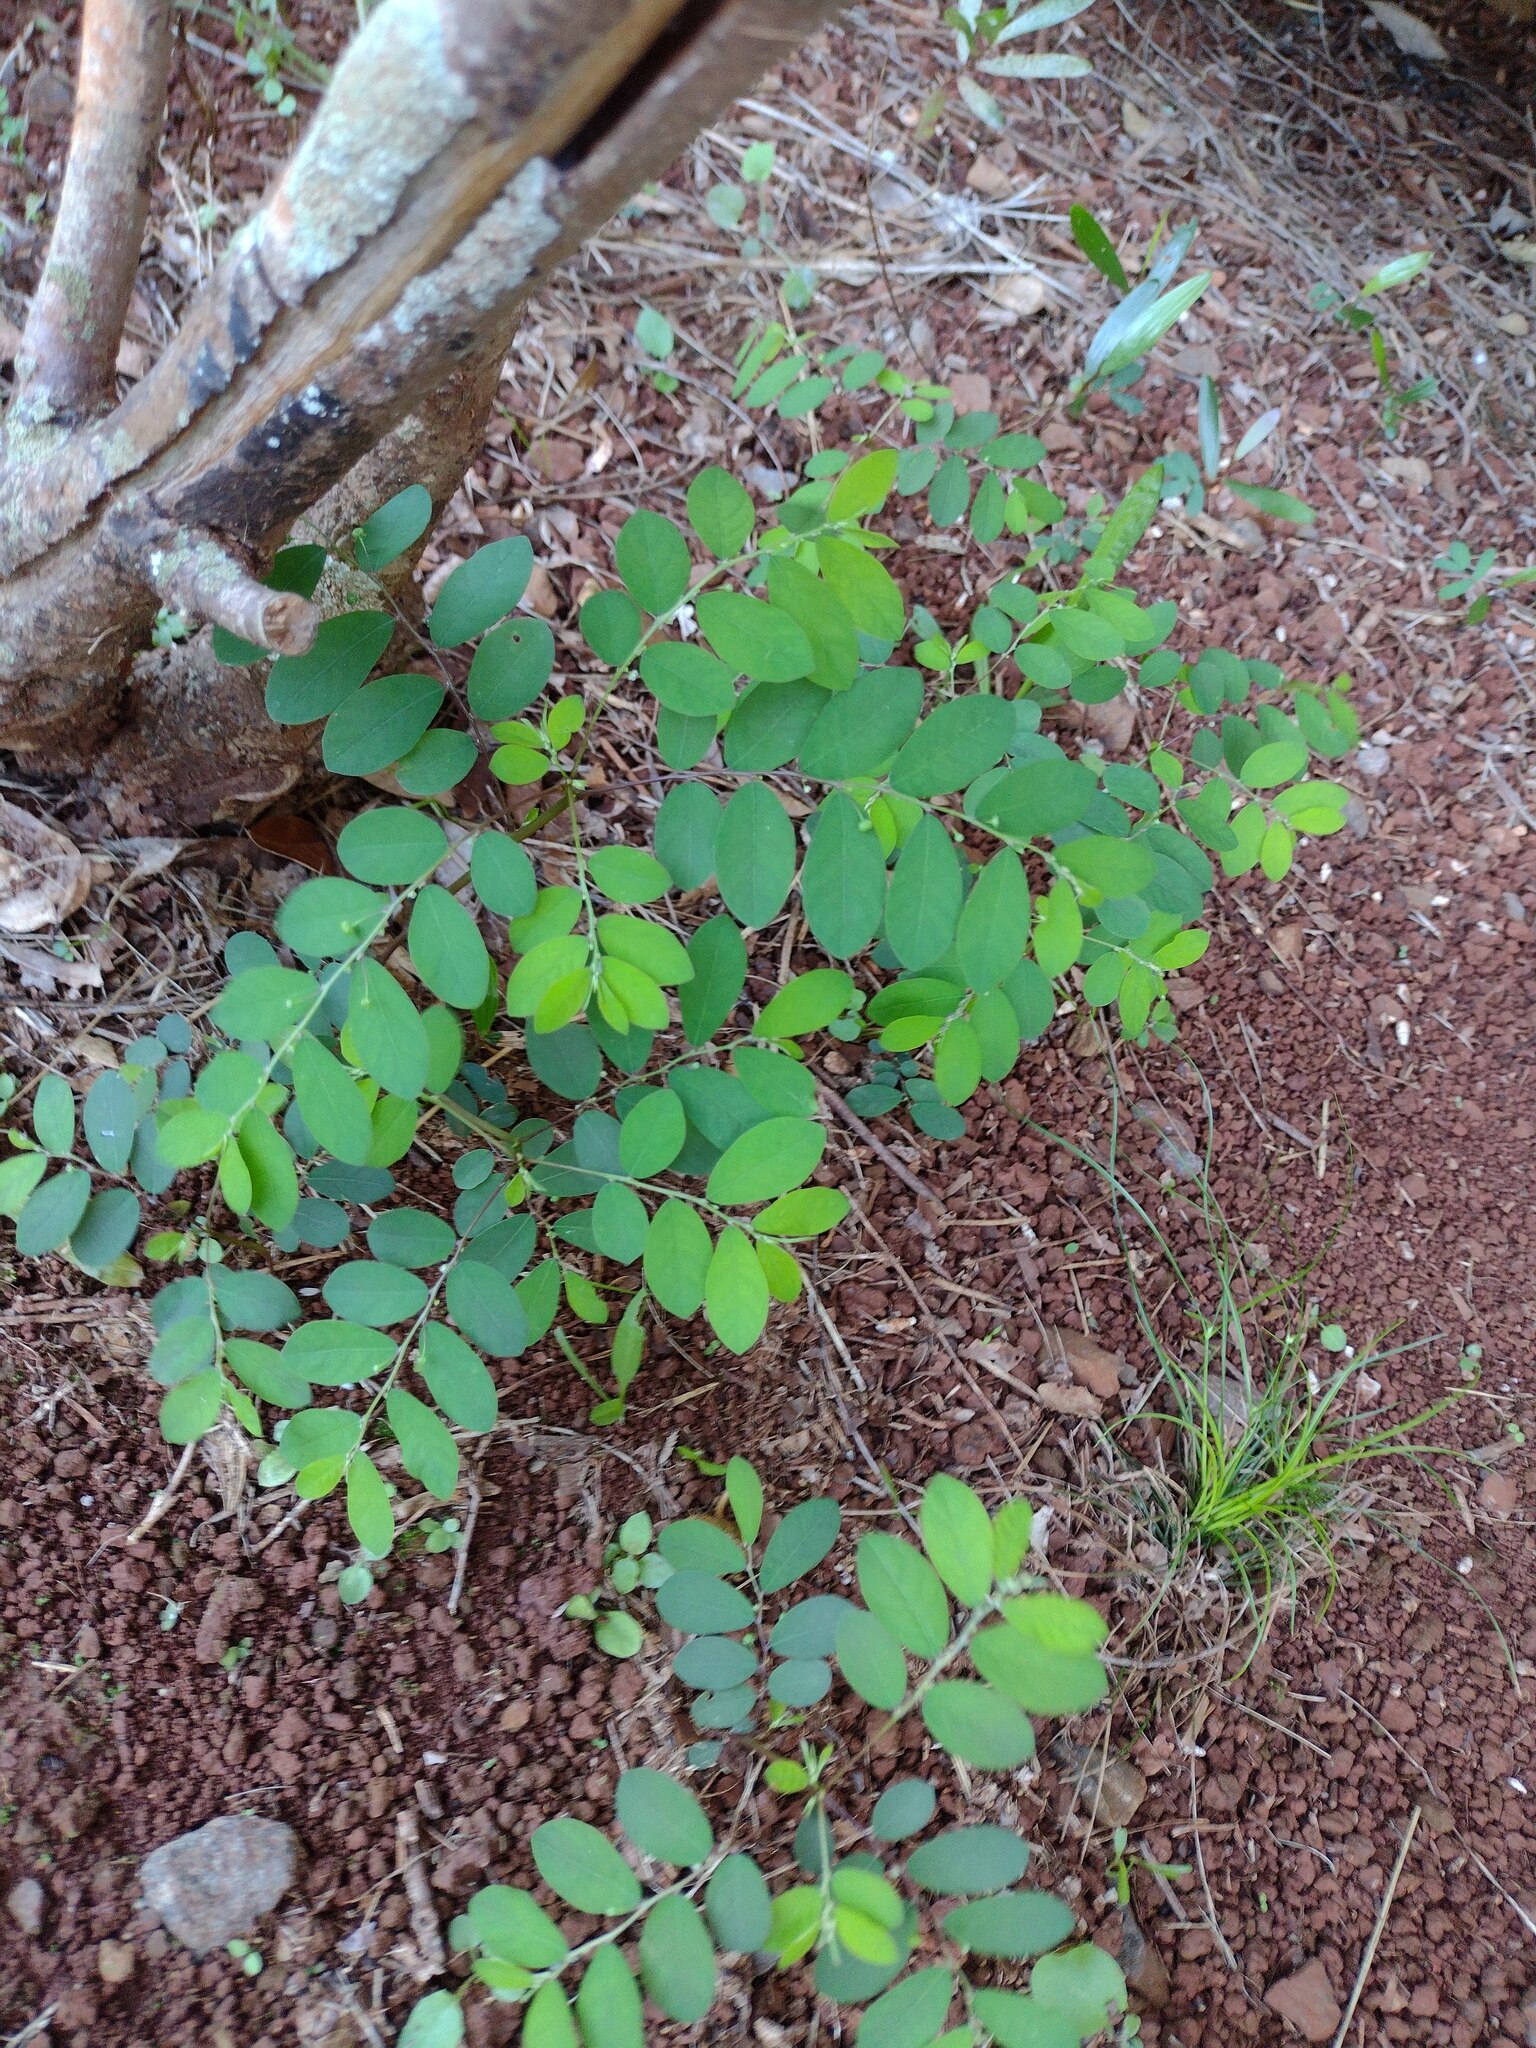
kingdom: Plantae
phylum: Tracheophyta
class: Magnoliopsida
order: Malpighiales
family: Phyllanthaceae
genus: Phyllanthus
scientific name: Phyllanthus tenellus
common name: Mascarene island leaf-flower
